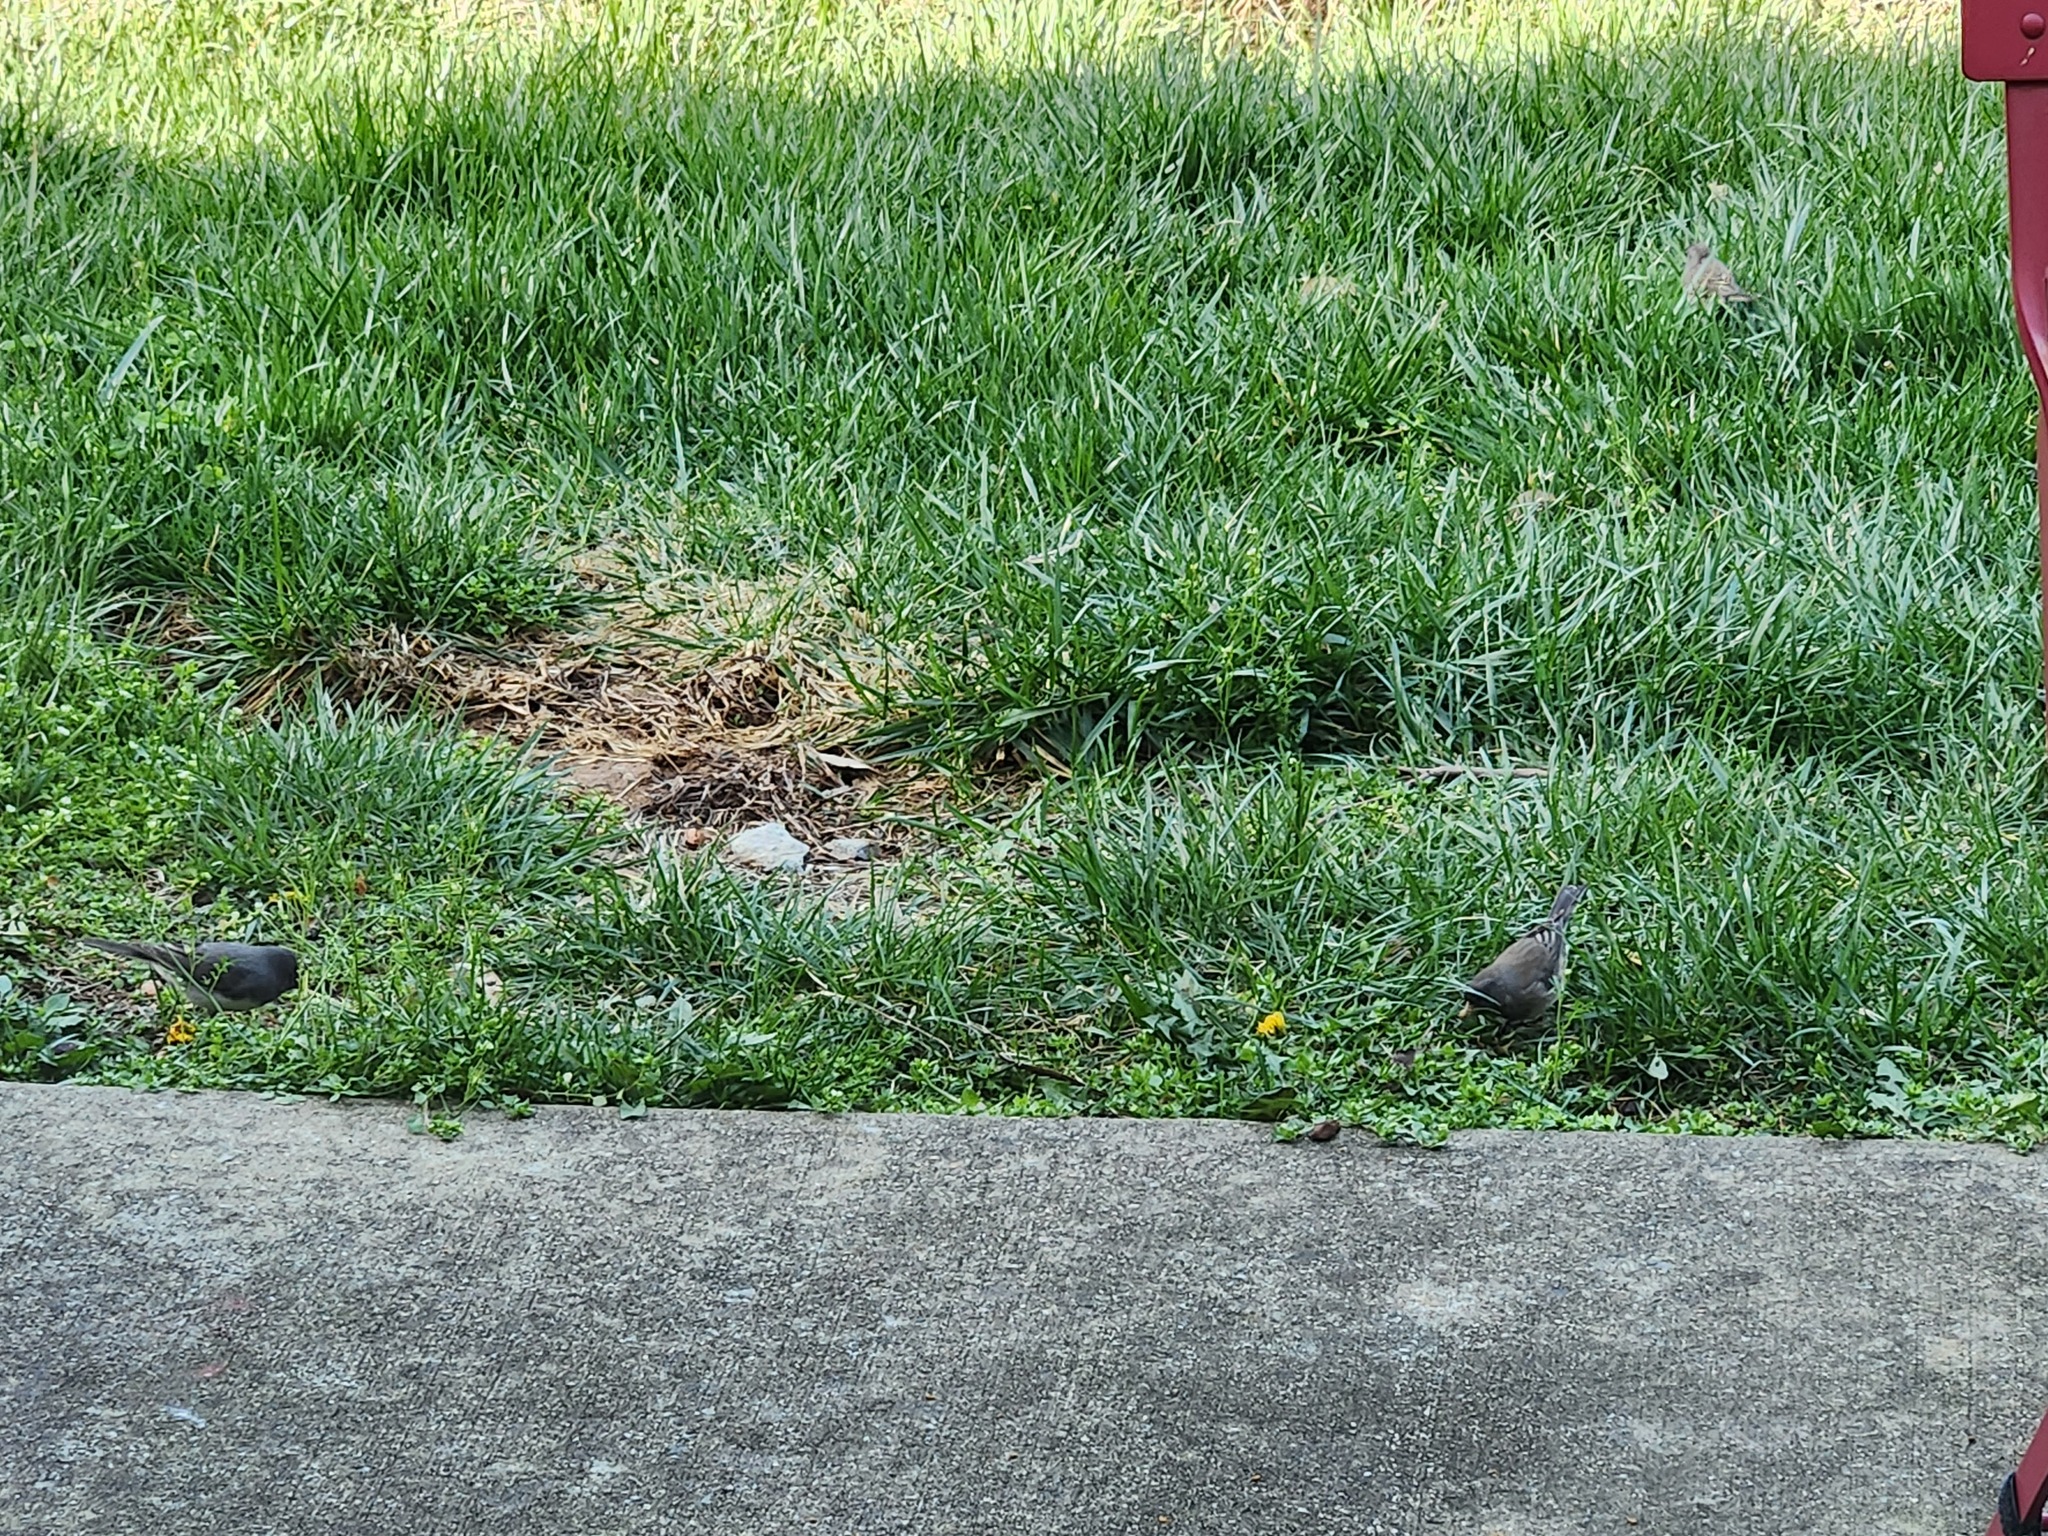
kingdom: Animalia
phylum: Chordata
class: Aves
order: Passeriformes
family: Passerellidae
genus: Junco
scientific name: Junco hyemalis
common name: Dark-eyed junco
